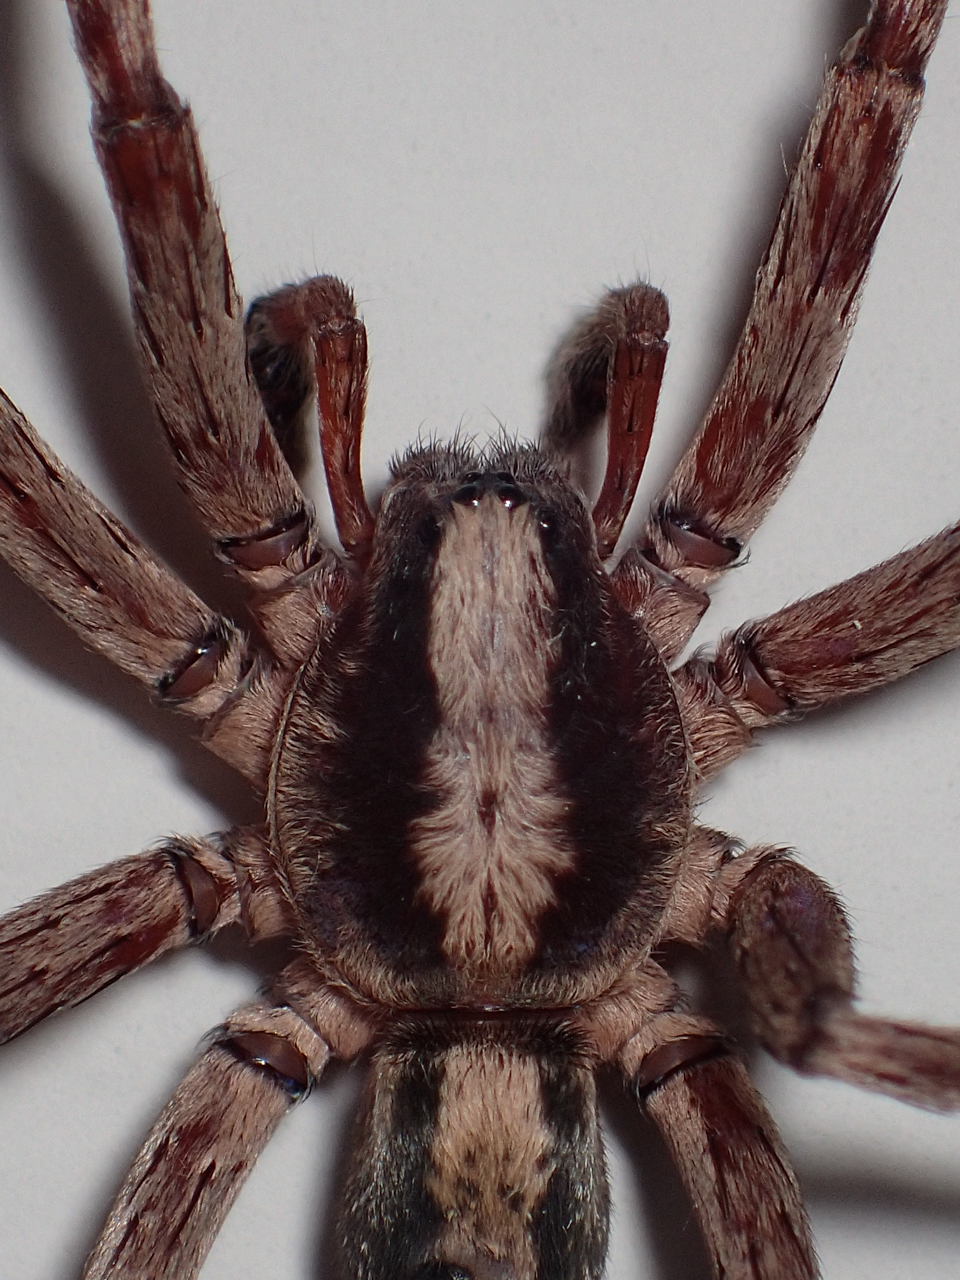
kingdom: Animalia
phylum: Arthropoda
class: Arachnida
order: Araneae
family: Ctenidae
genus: Ctenus
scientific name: Ctenus hibernalis
